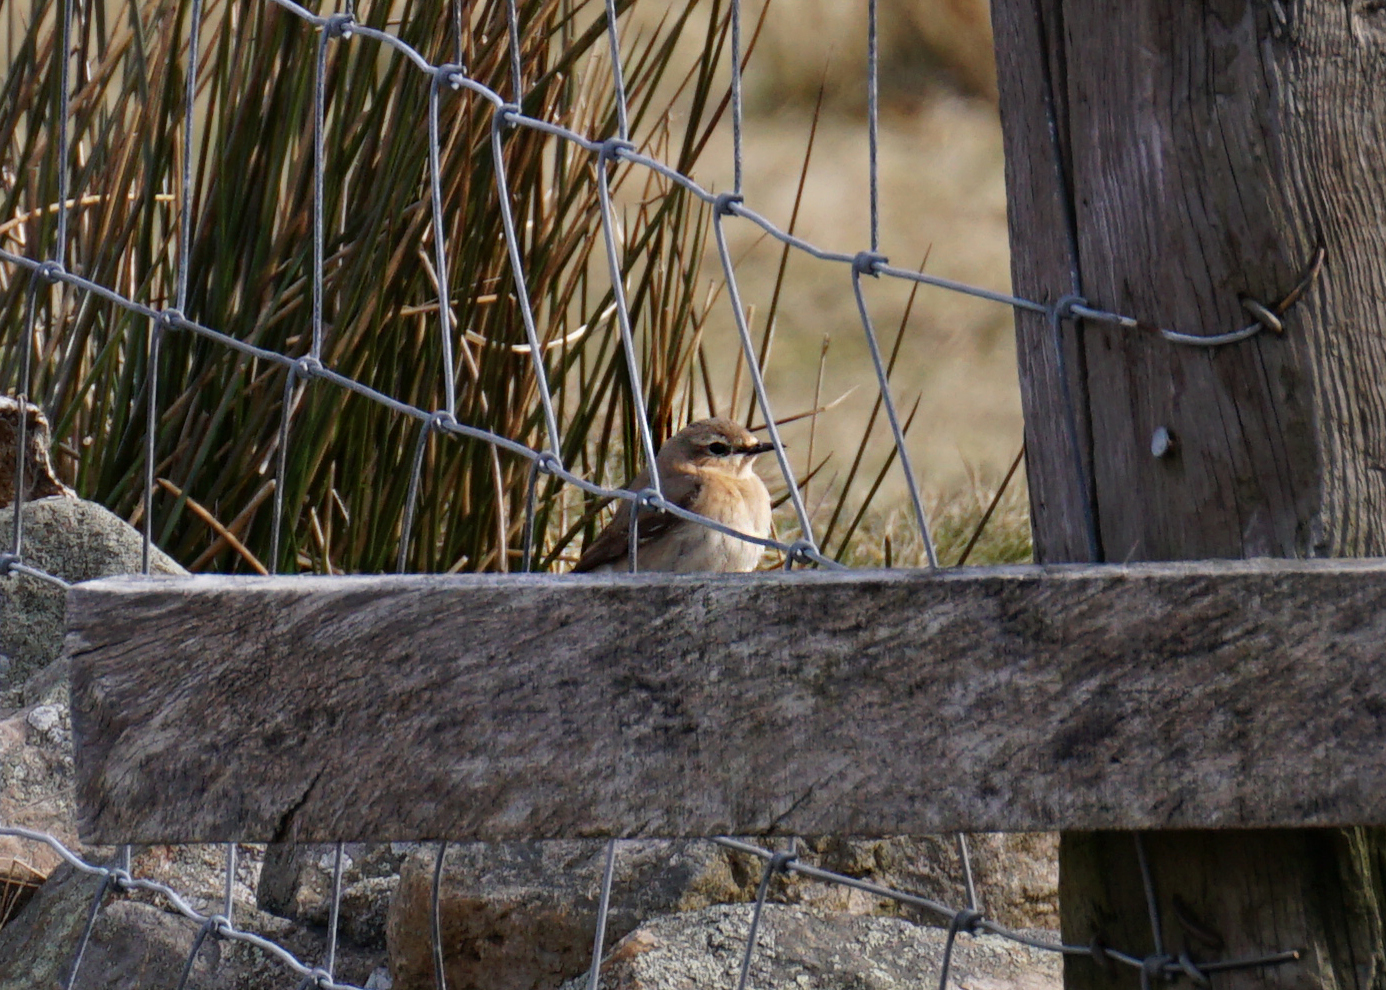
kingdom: Animalia
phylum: Chordata
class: Aves
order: Passeriformes
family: Muscicapidae
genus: Oenanthe
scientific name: Oenanthe oenanthe
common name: Northern wheatear
